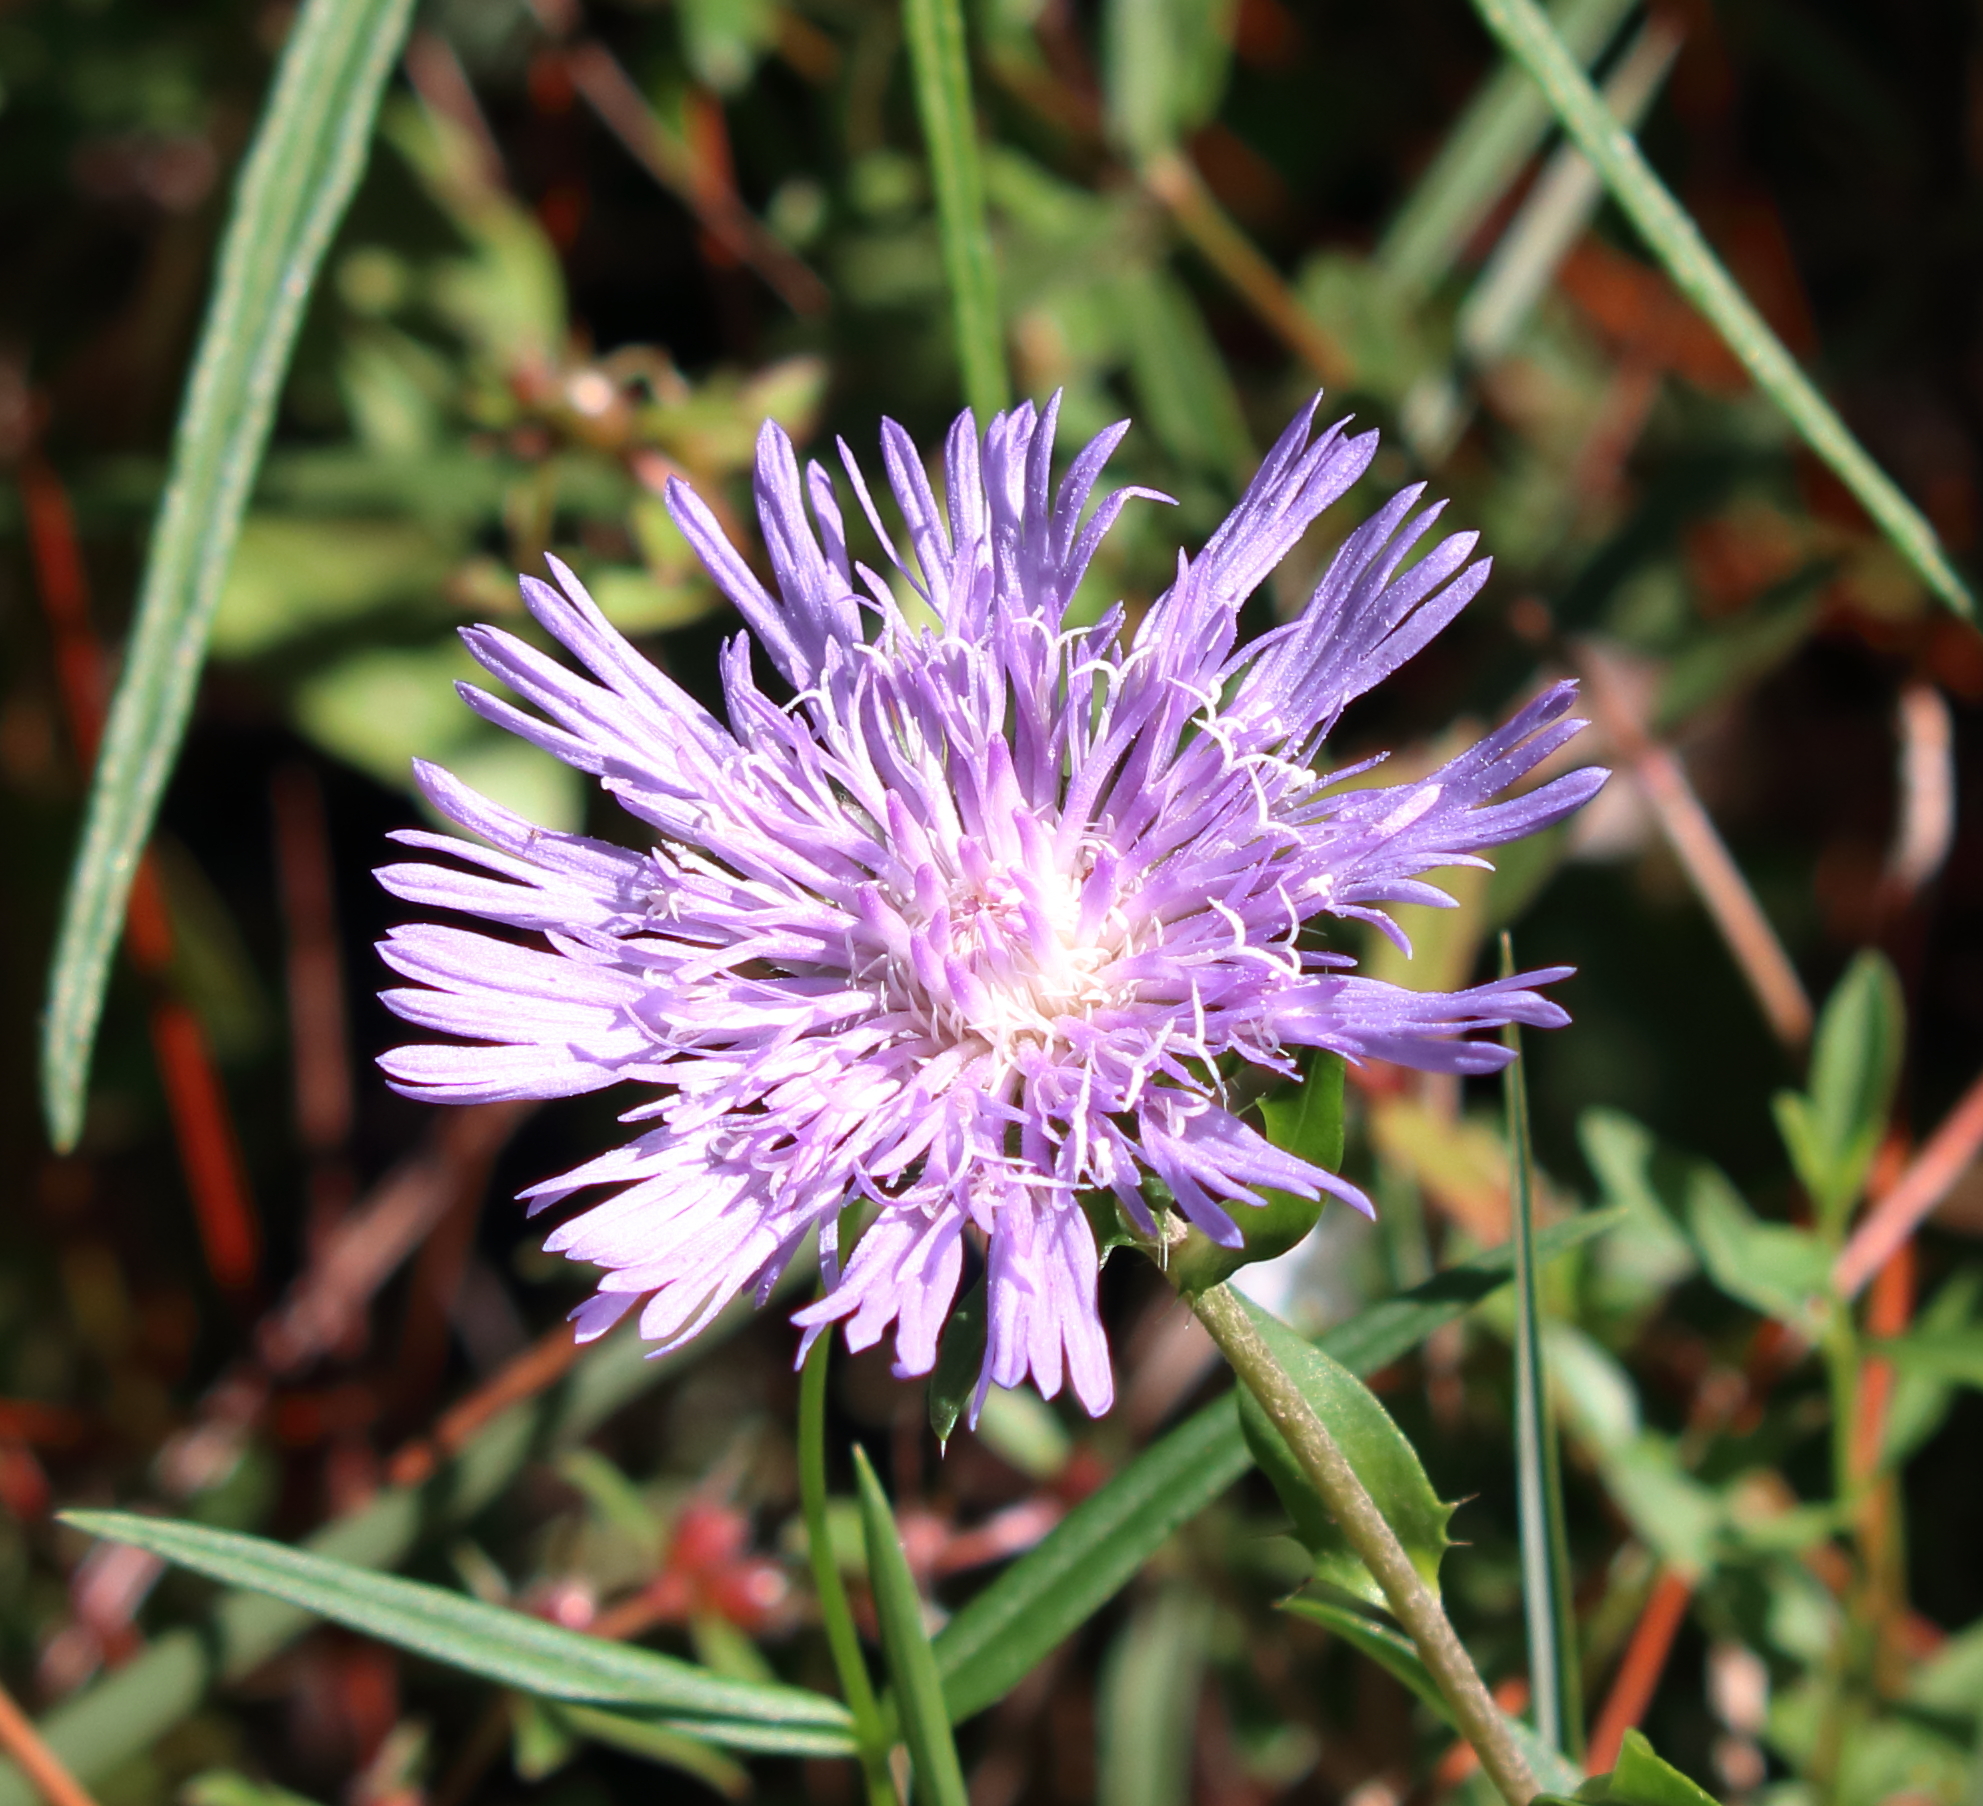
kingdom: Plantae
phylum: Tracheophyta
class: Magnoliopsida
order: Asterales
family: Asteraceae
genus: Stokesia
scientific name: Stokesia laevis
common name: Stokes'-aster
